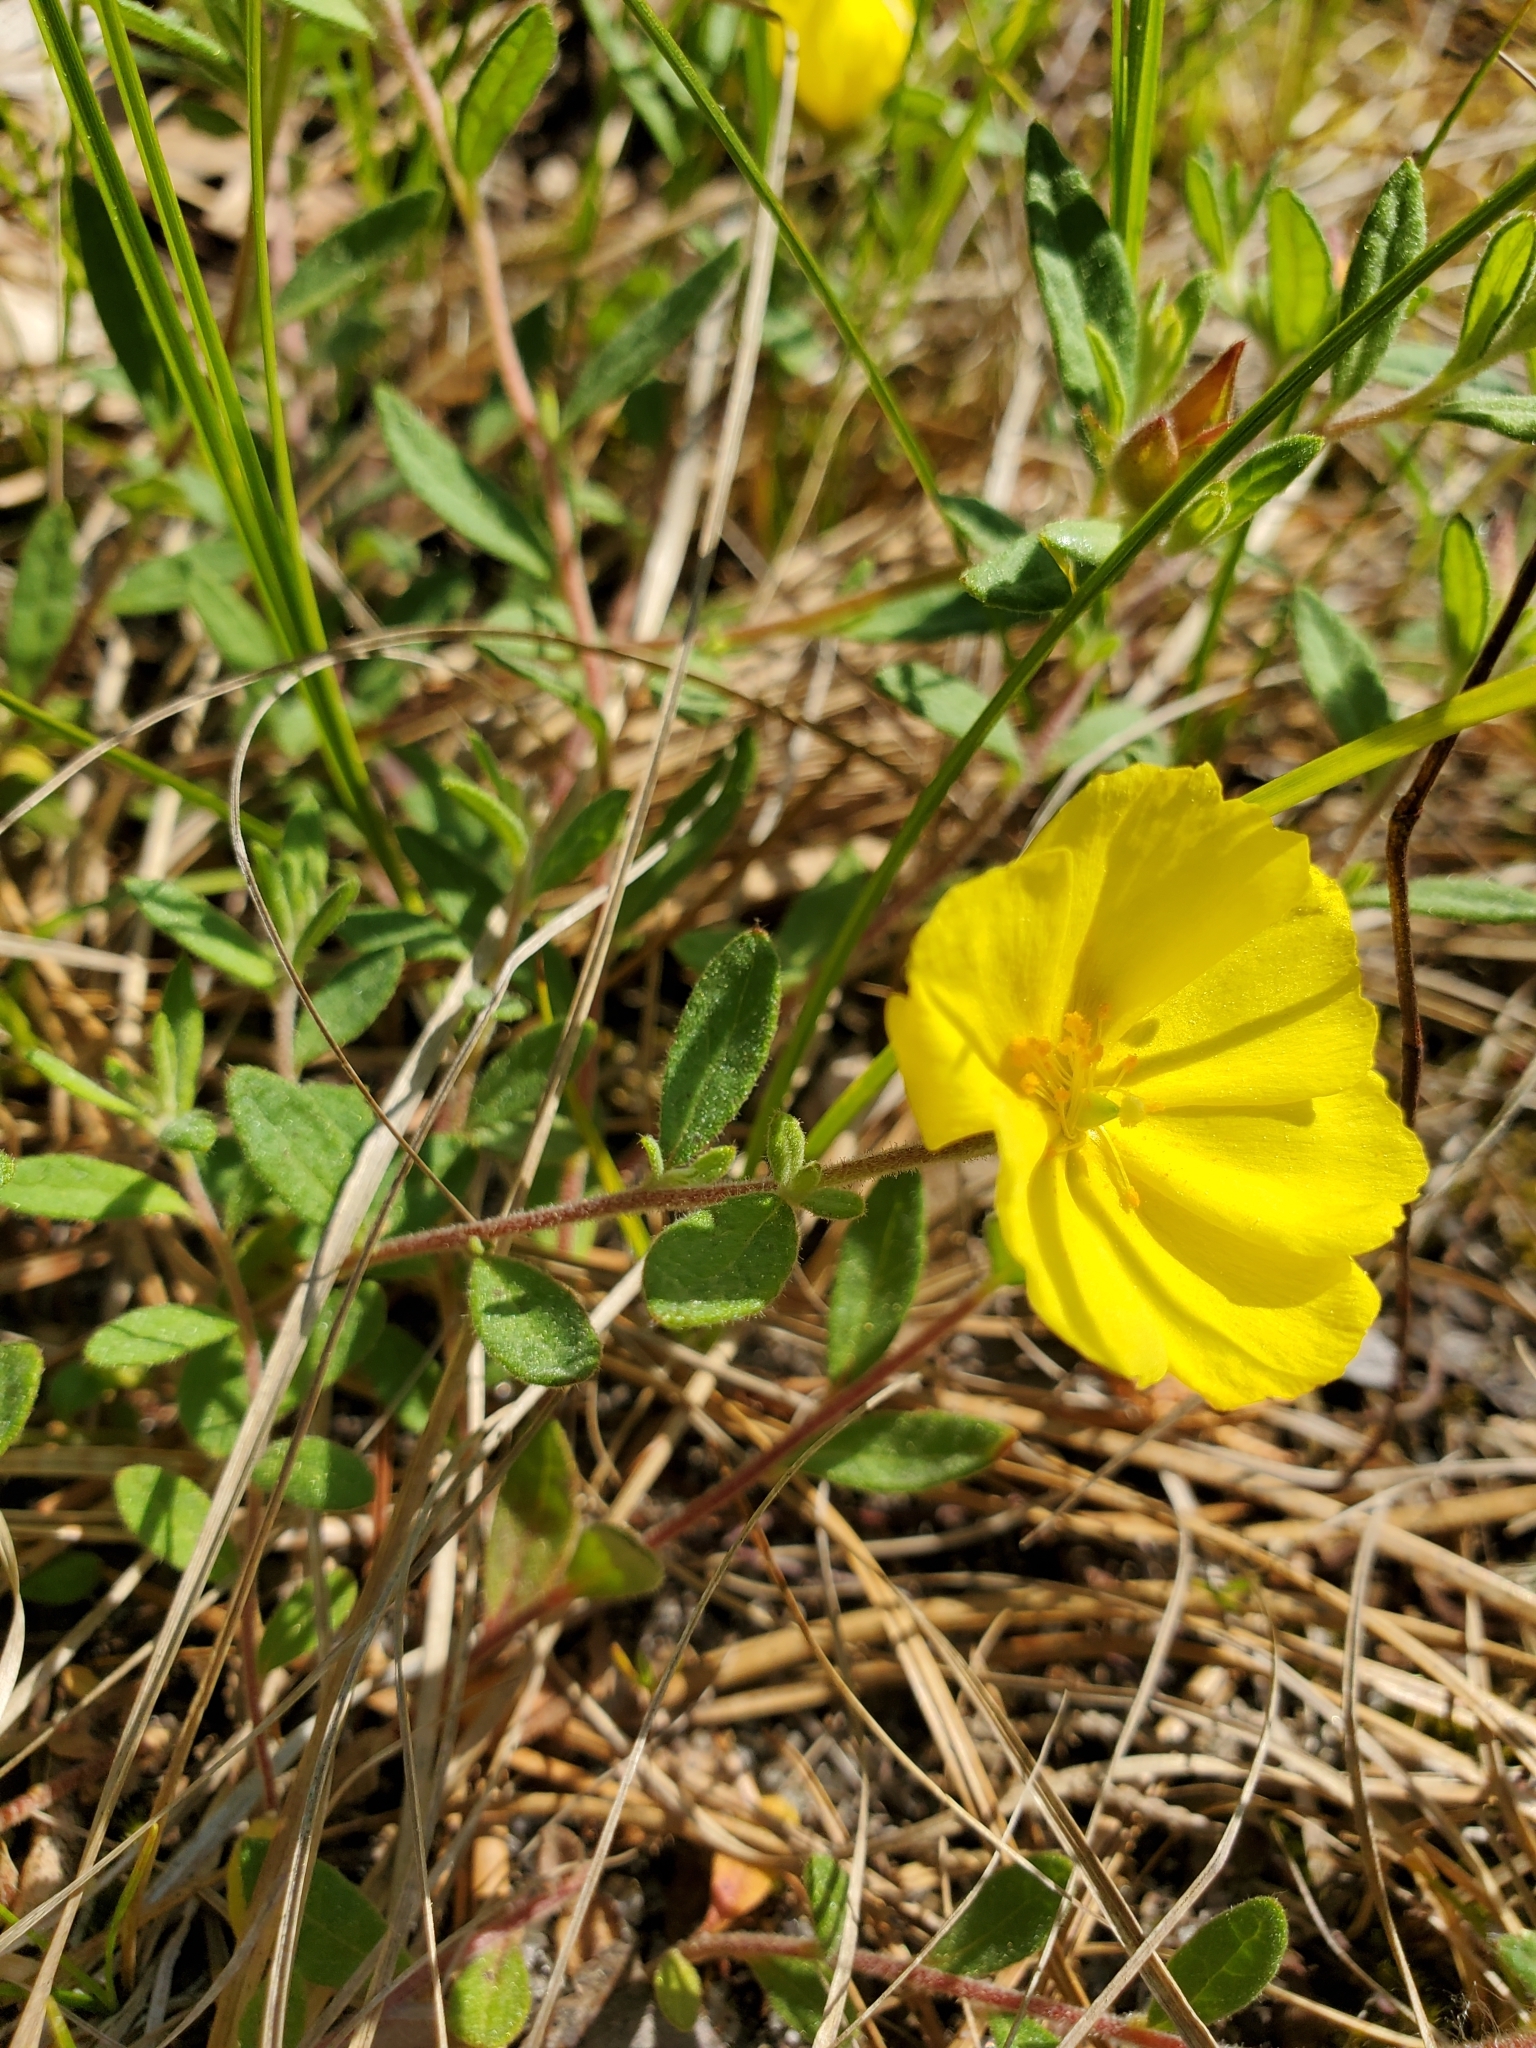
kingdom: Plantae
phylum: Tracheophyta
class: Magnoliopsida
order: Malvales
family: Cistaceae
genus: Crocanthemum
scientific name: Crocanthemum canadense
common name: Canada frostweed
